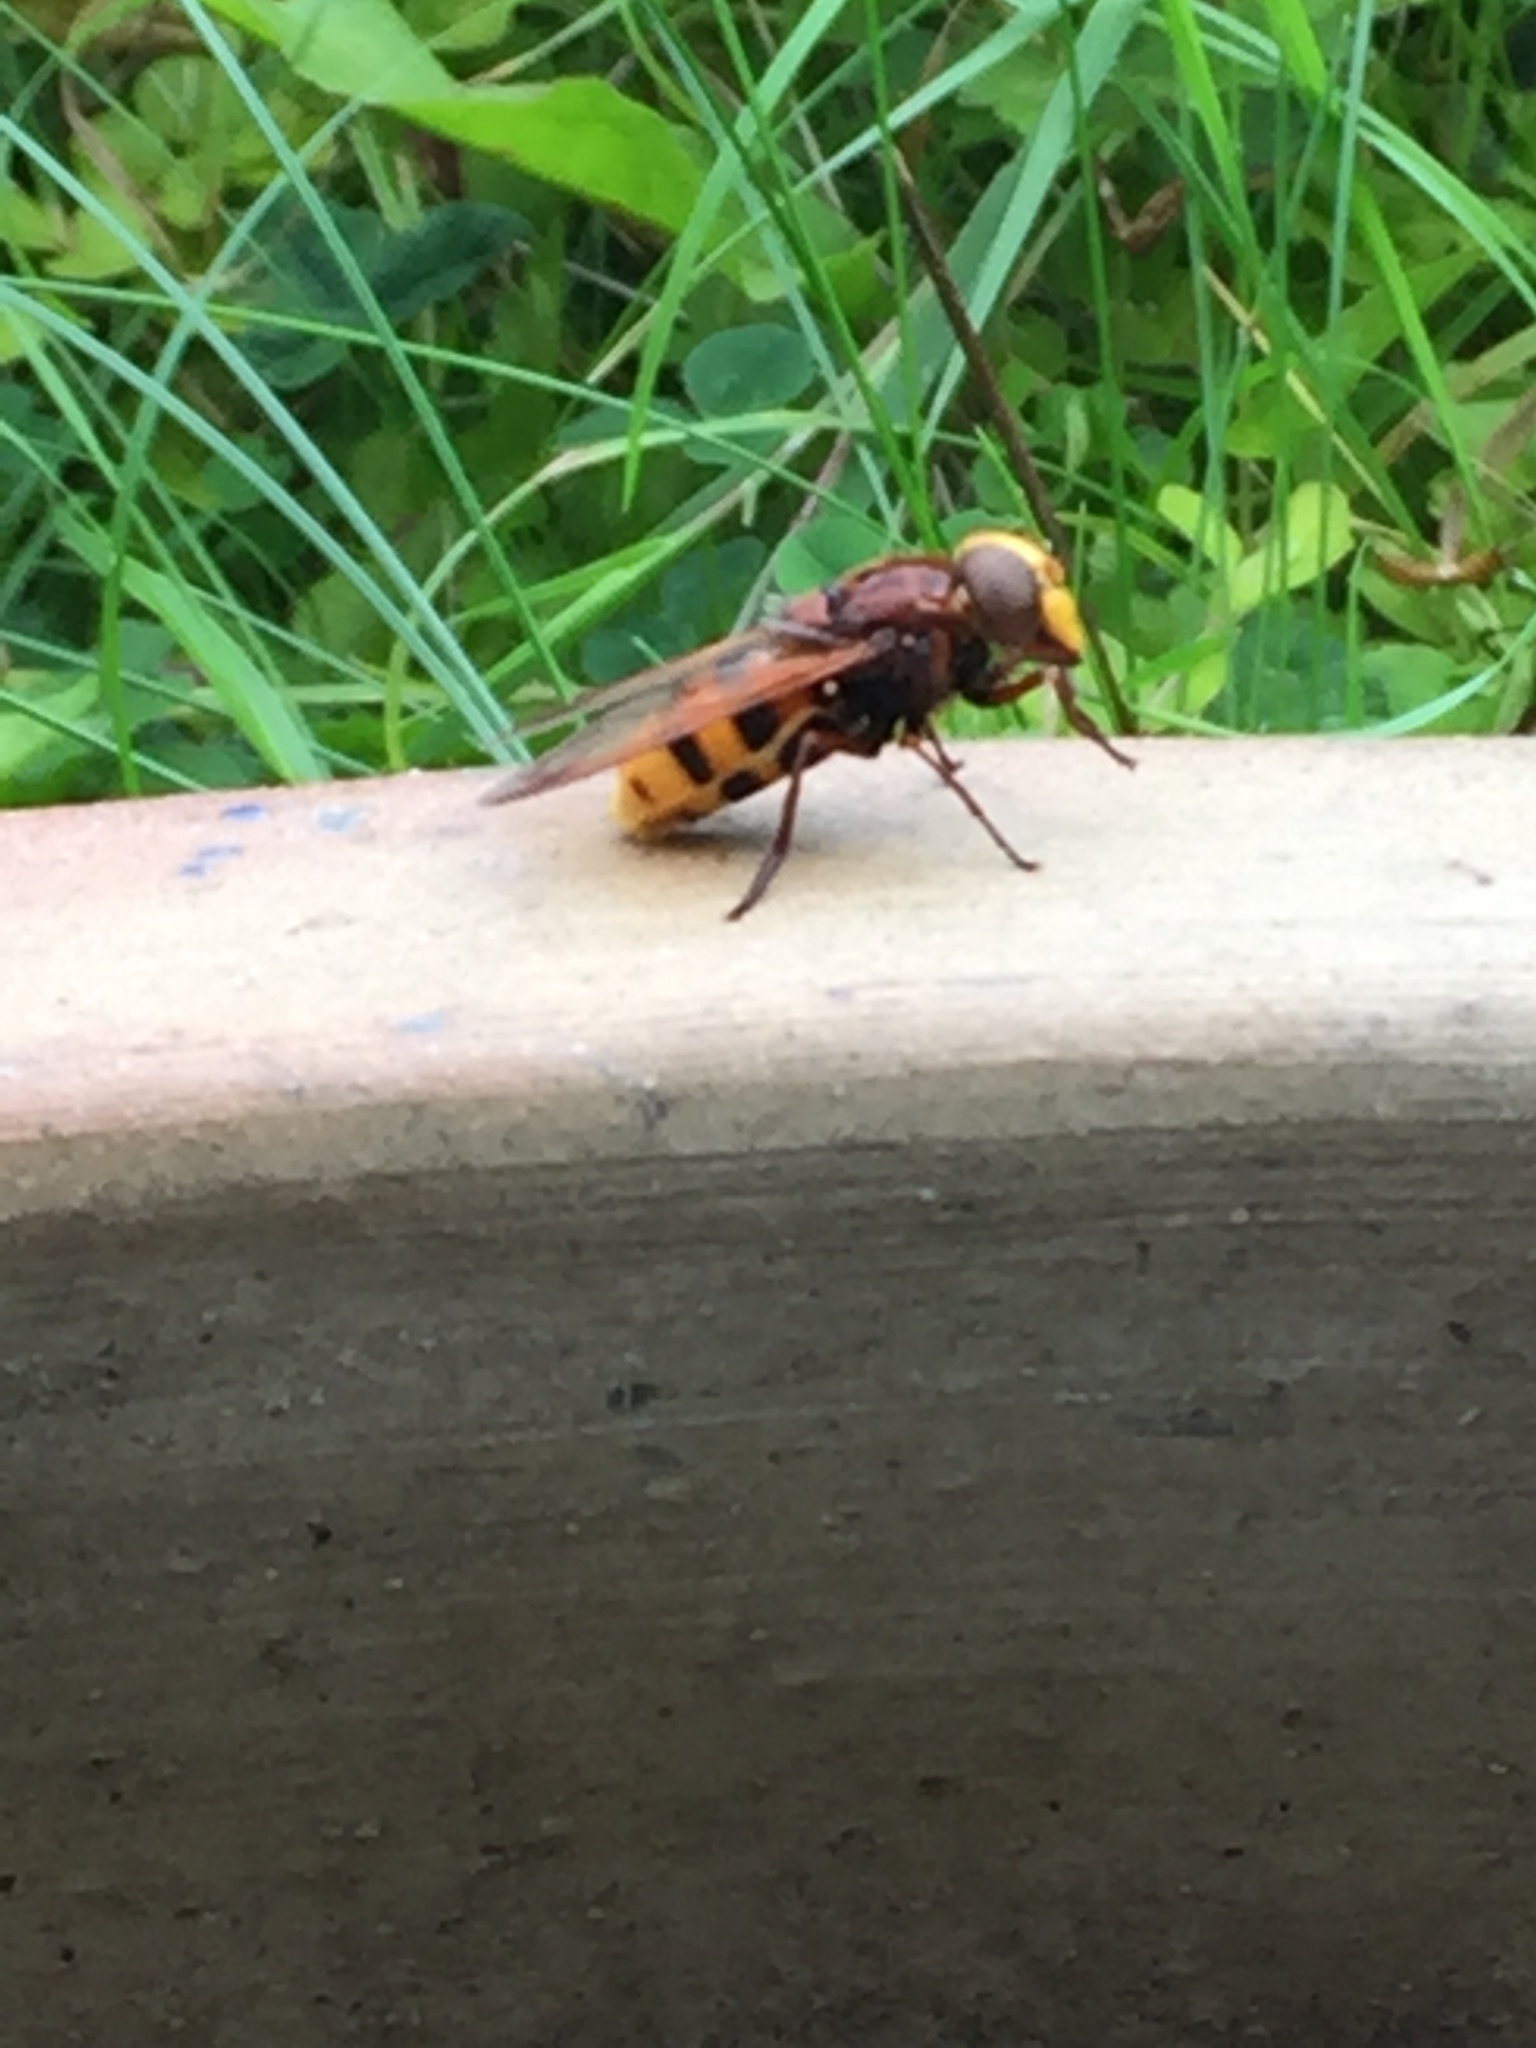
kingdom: Animalia
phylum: Arthropoda
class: Insecta
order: Diptera
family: Syrphidae
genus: Volucella
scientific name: Volucella zonaria
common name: Hornet hoverfly
